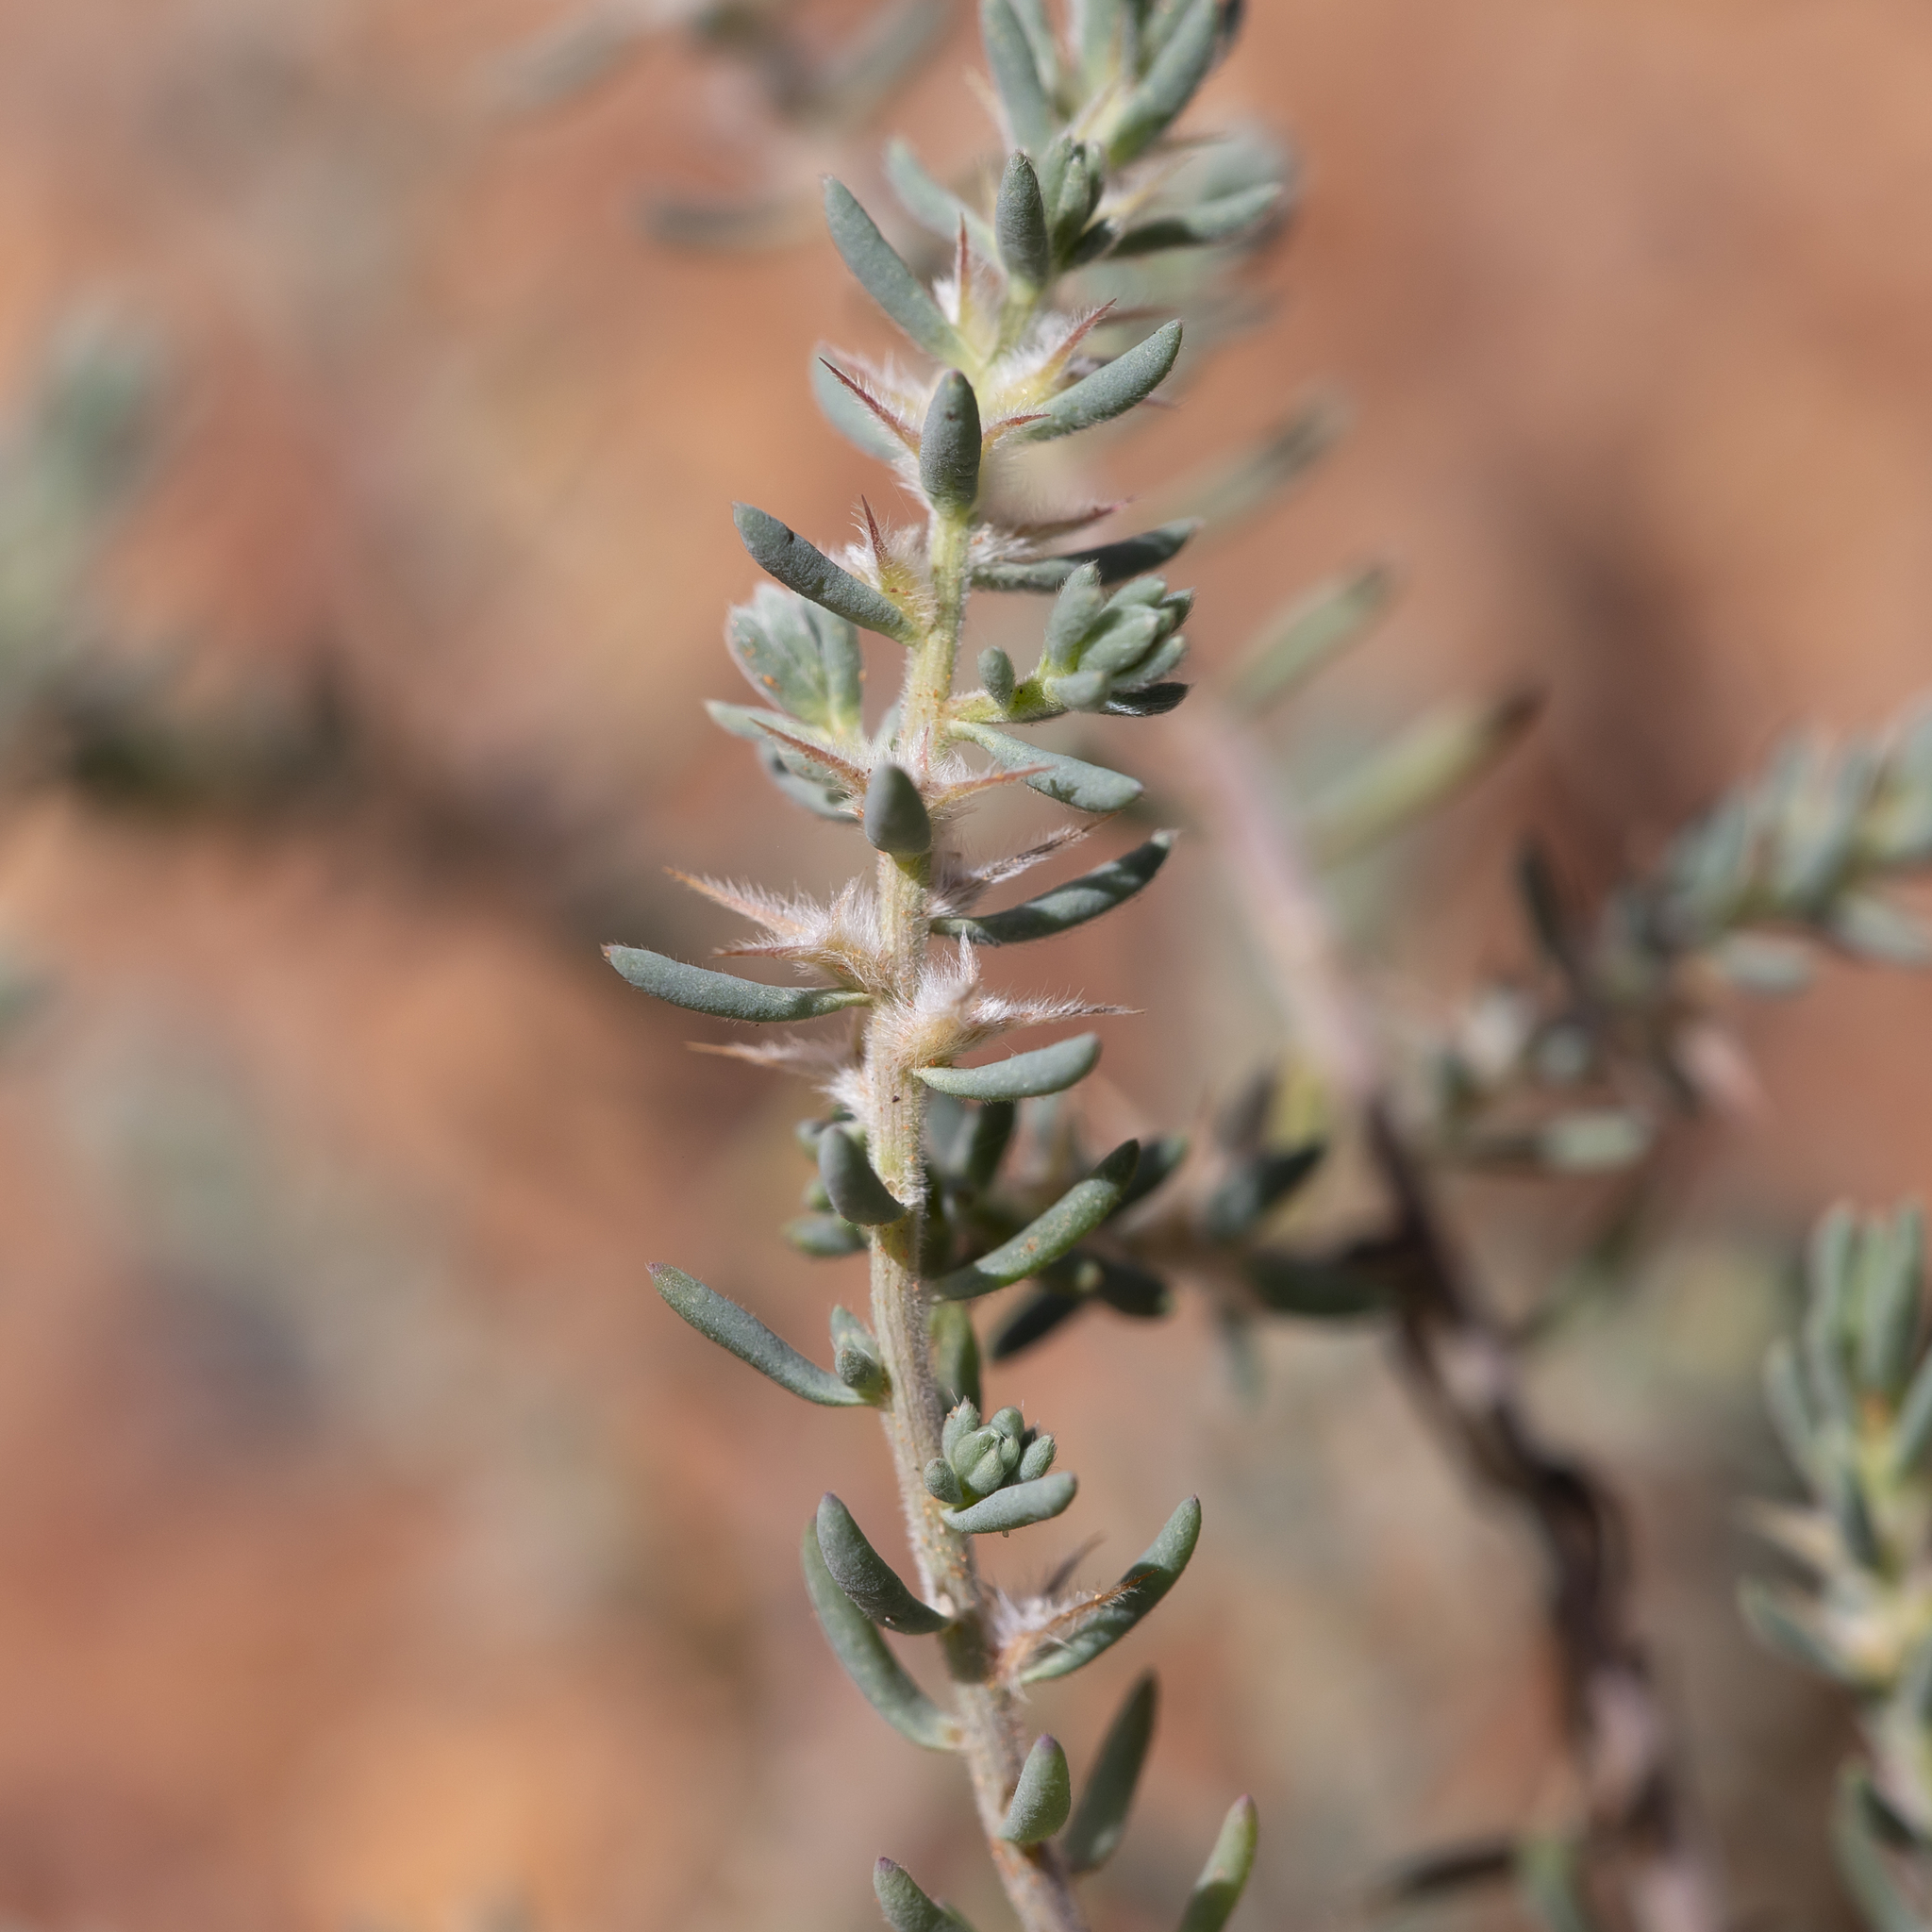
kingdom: Plantae
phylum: Tracheophyta
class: Magnoliopsida
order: Caryophyllales
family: Amaranthaceae
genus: Sclerolaena
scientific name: Sclerolaena lanicuspis
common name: Copperbur
